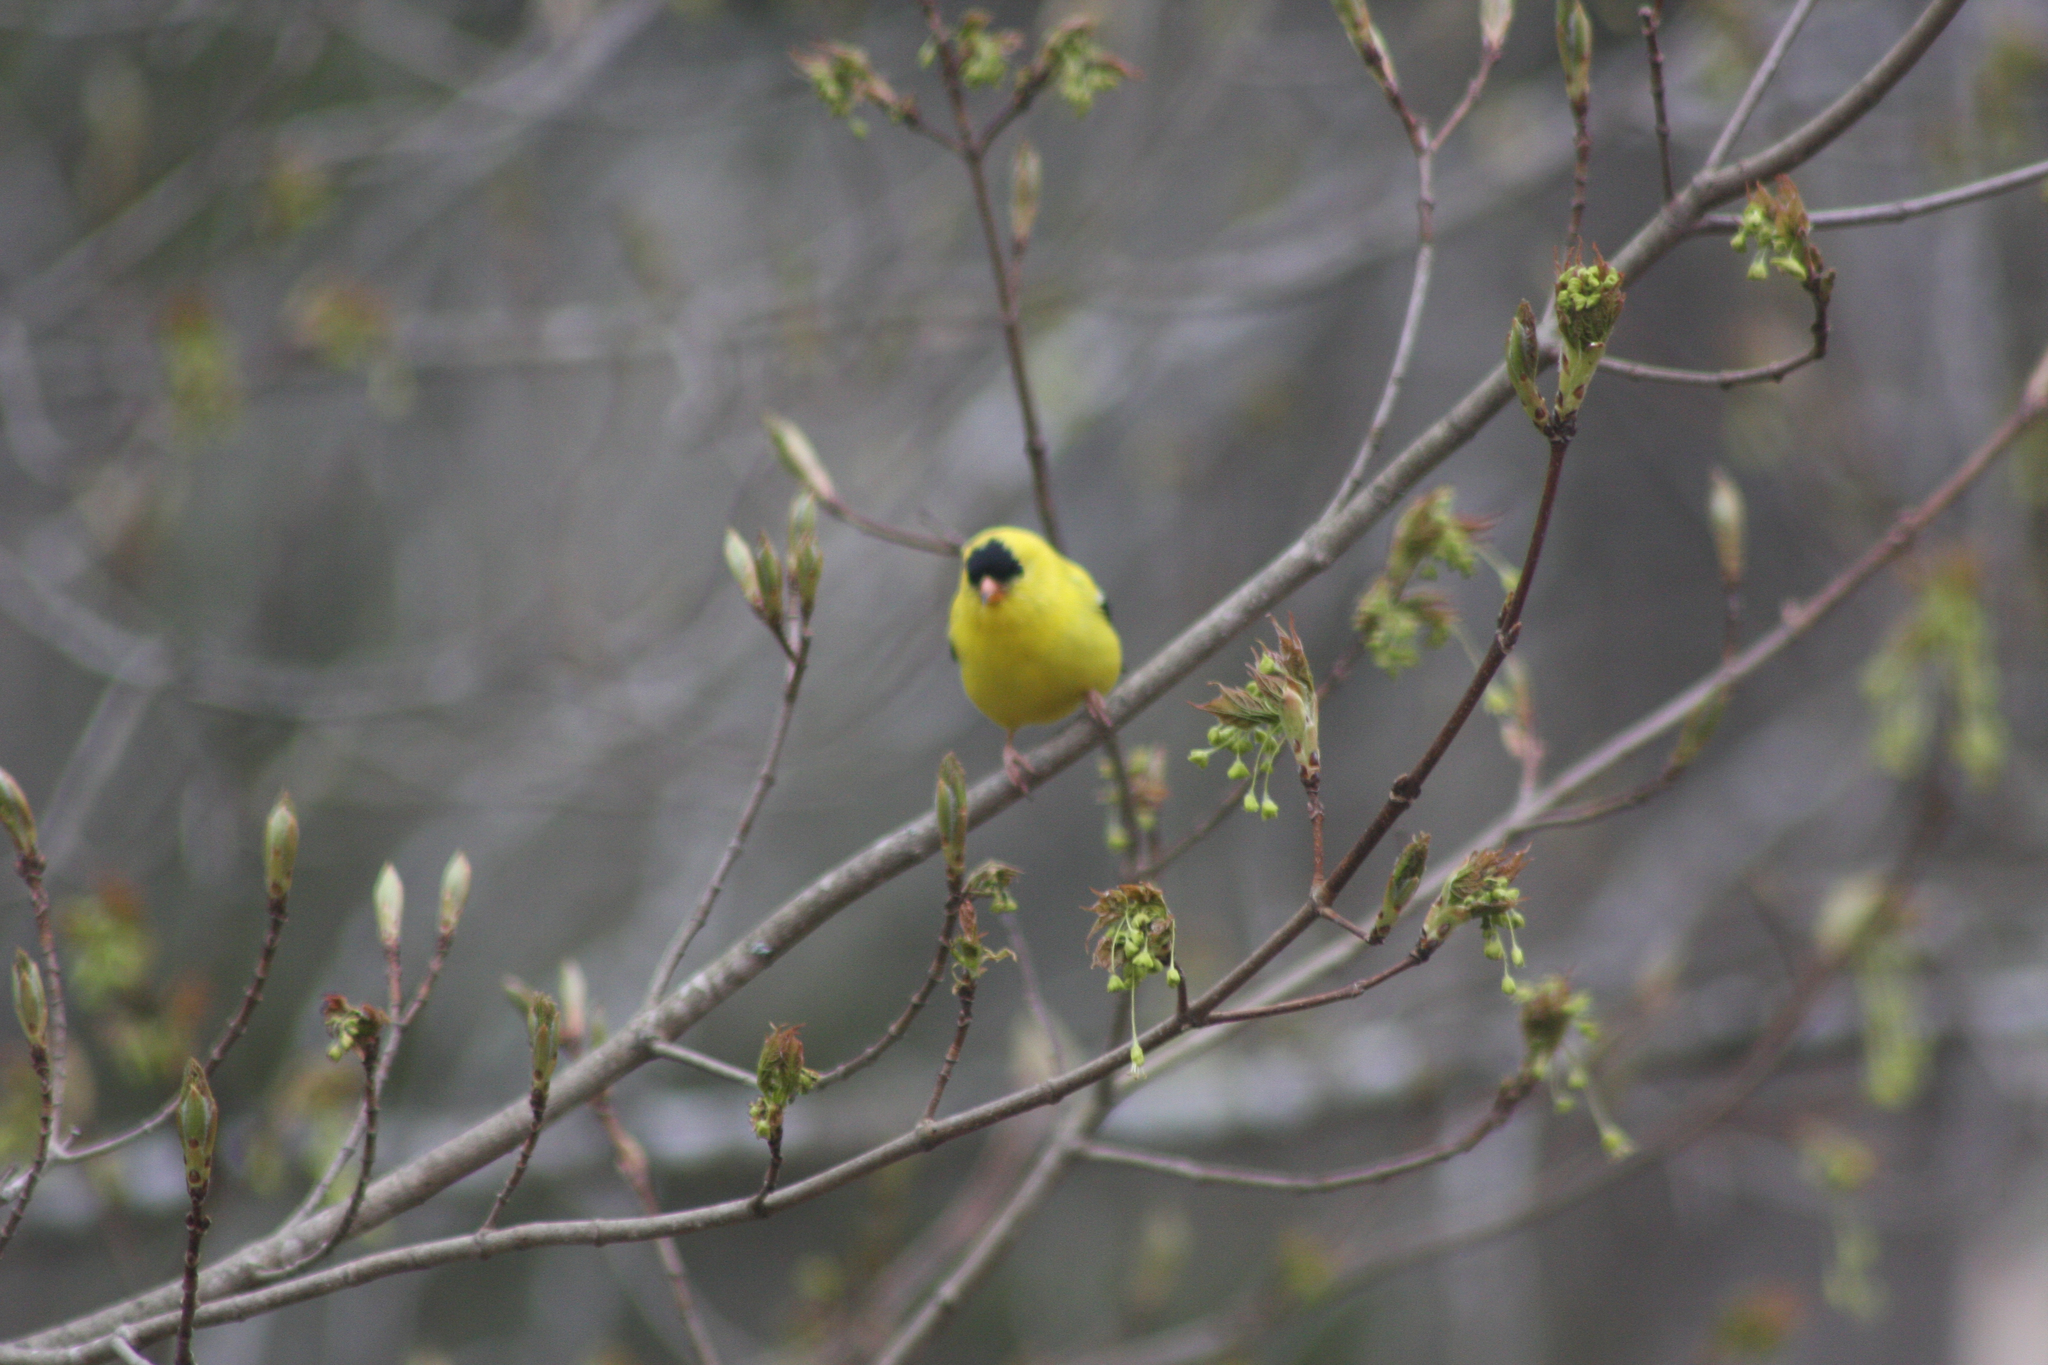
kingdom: Animalia
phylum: Chordata
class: Aves
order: Passeriformes
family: Fringillidae
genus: Spinus
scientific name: Spinus tristis
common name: American goldfinch
